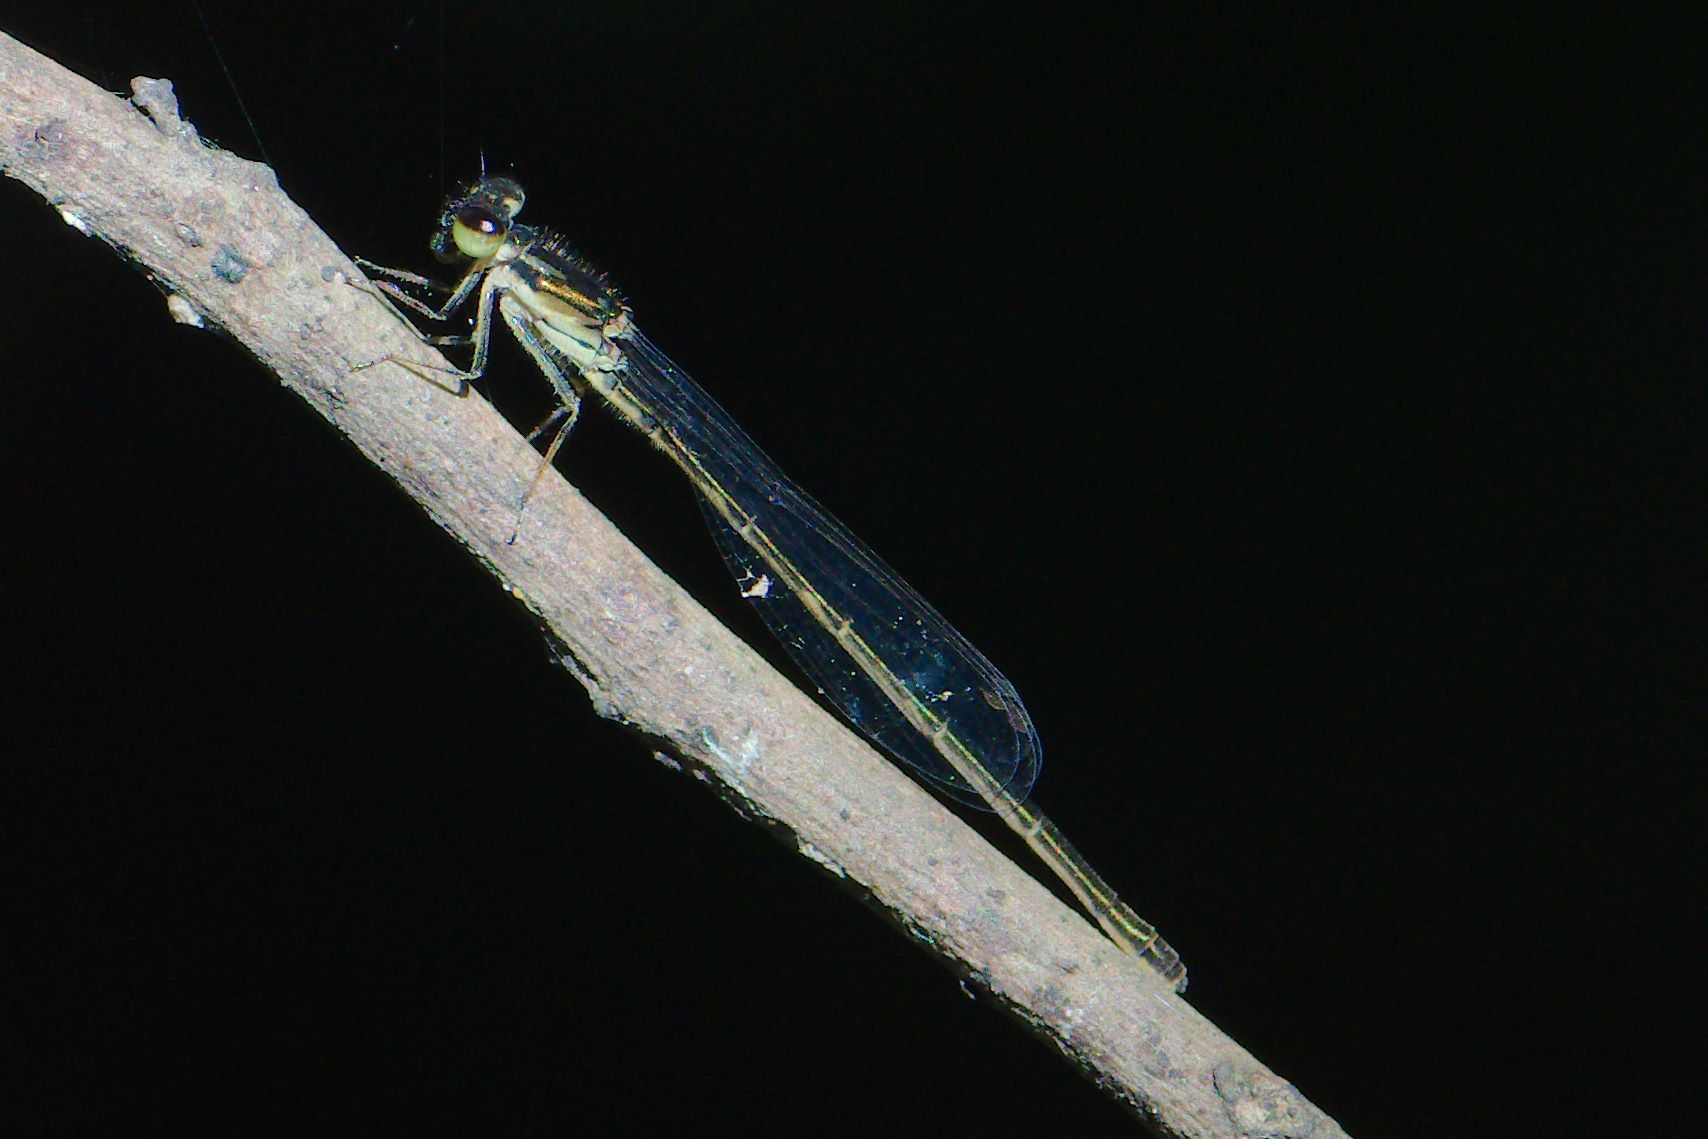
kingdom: Animalia
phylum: Arthropoda
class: Insecta
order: Odonata
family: Coenagrionidae
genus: Ischnura
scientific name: Ischnura posita
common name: Fragile forktail
